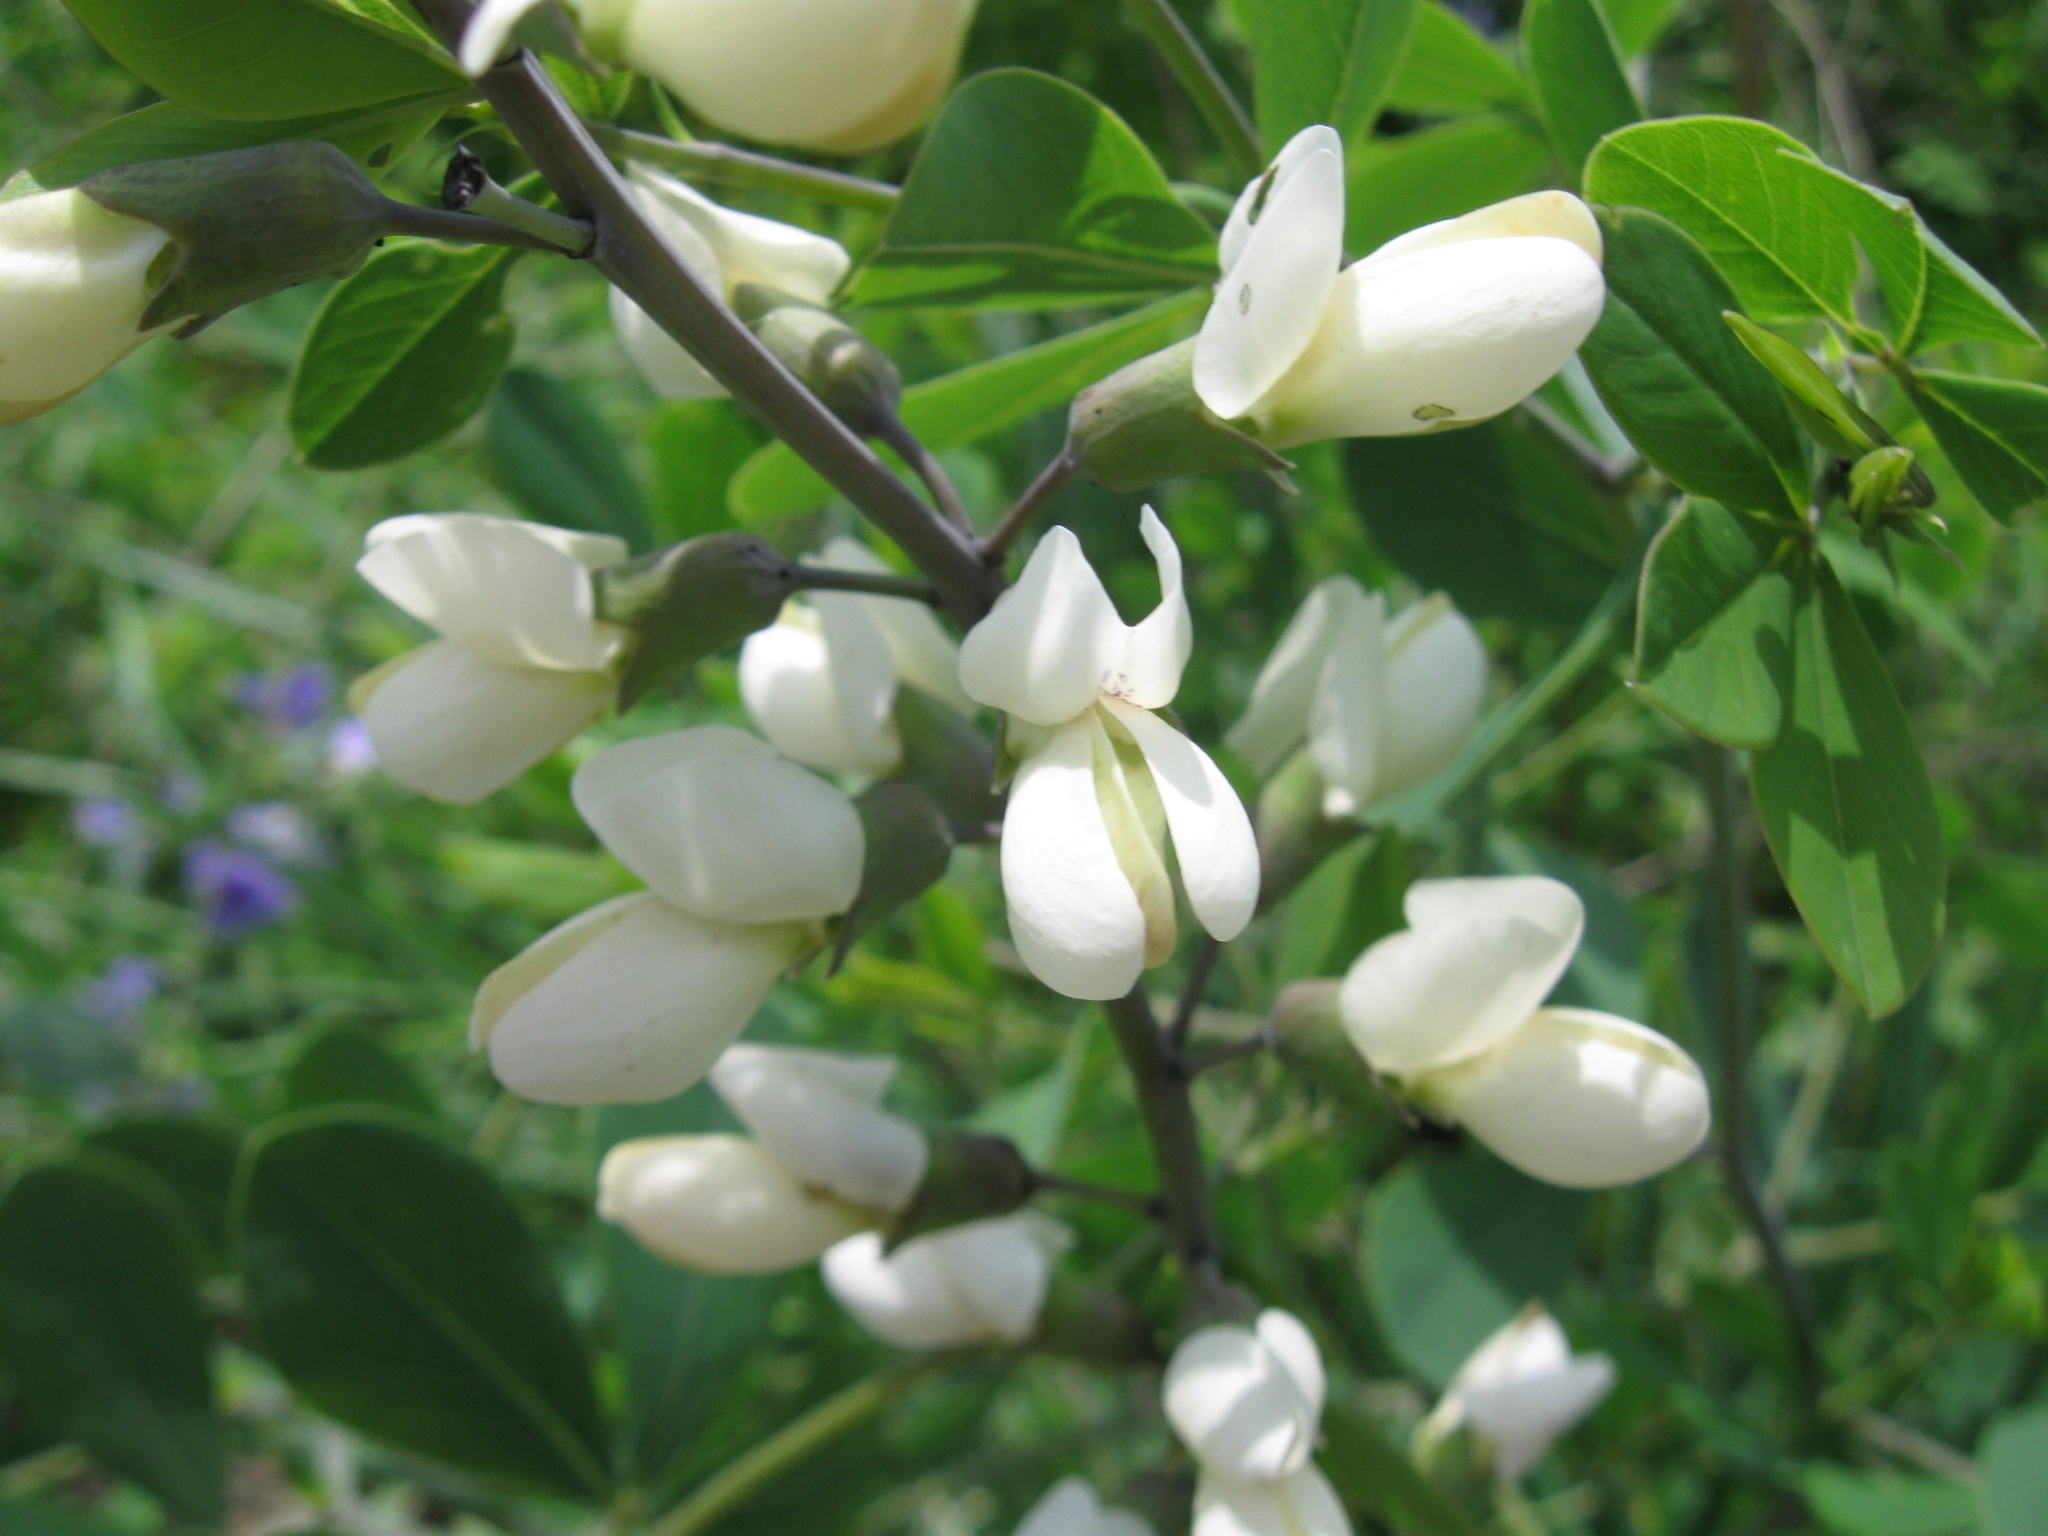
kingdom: Plantae
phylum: Tracheophyta
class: Magnoliopsida
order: Fabales
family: Fabaceae
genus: Baptisia
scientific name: Baptisia alba
